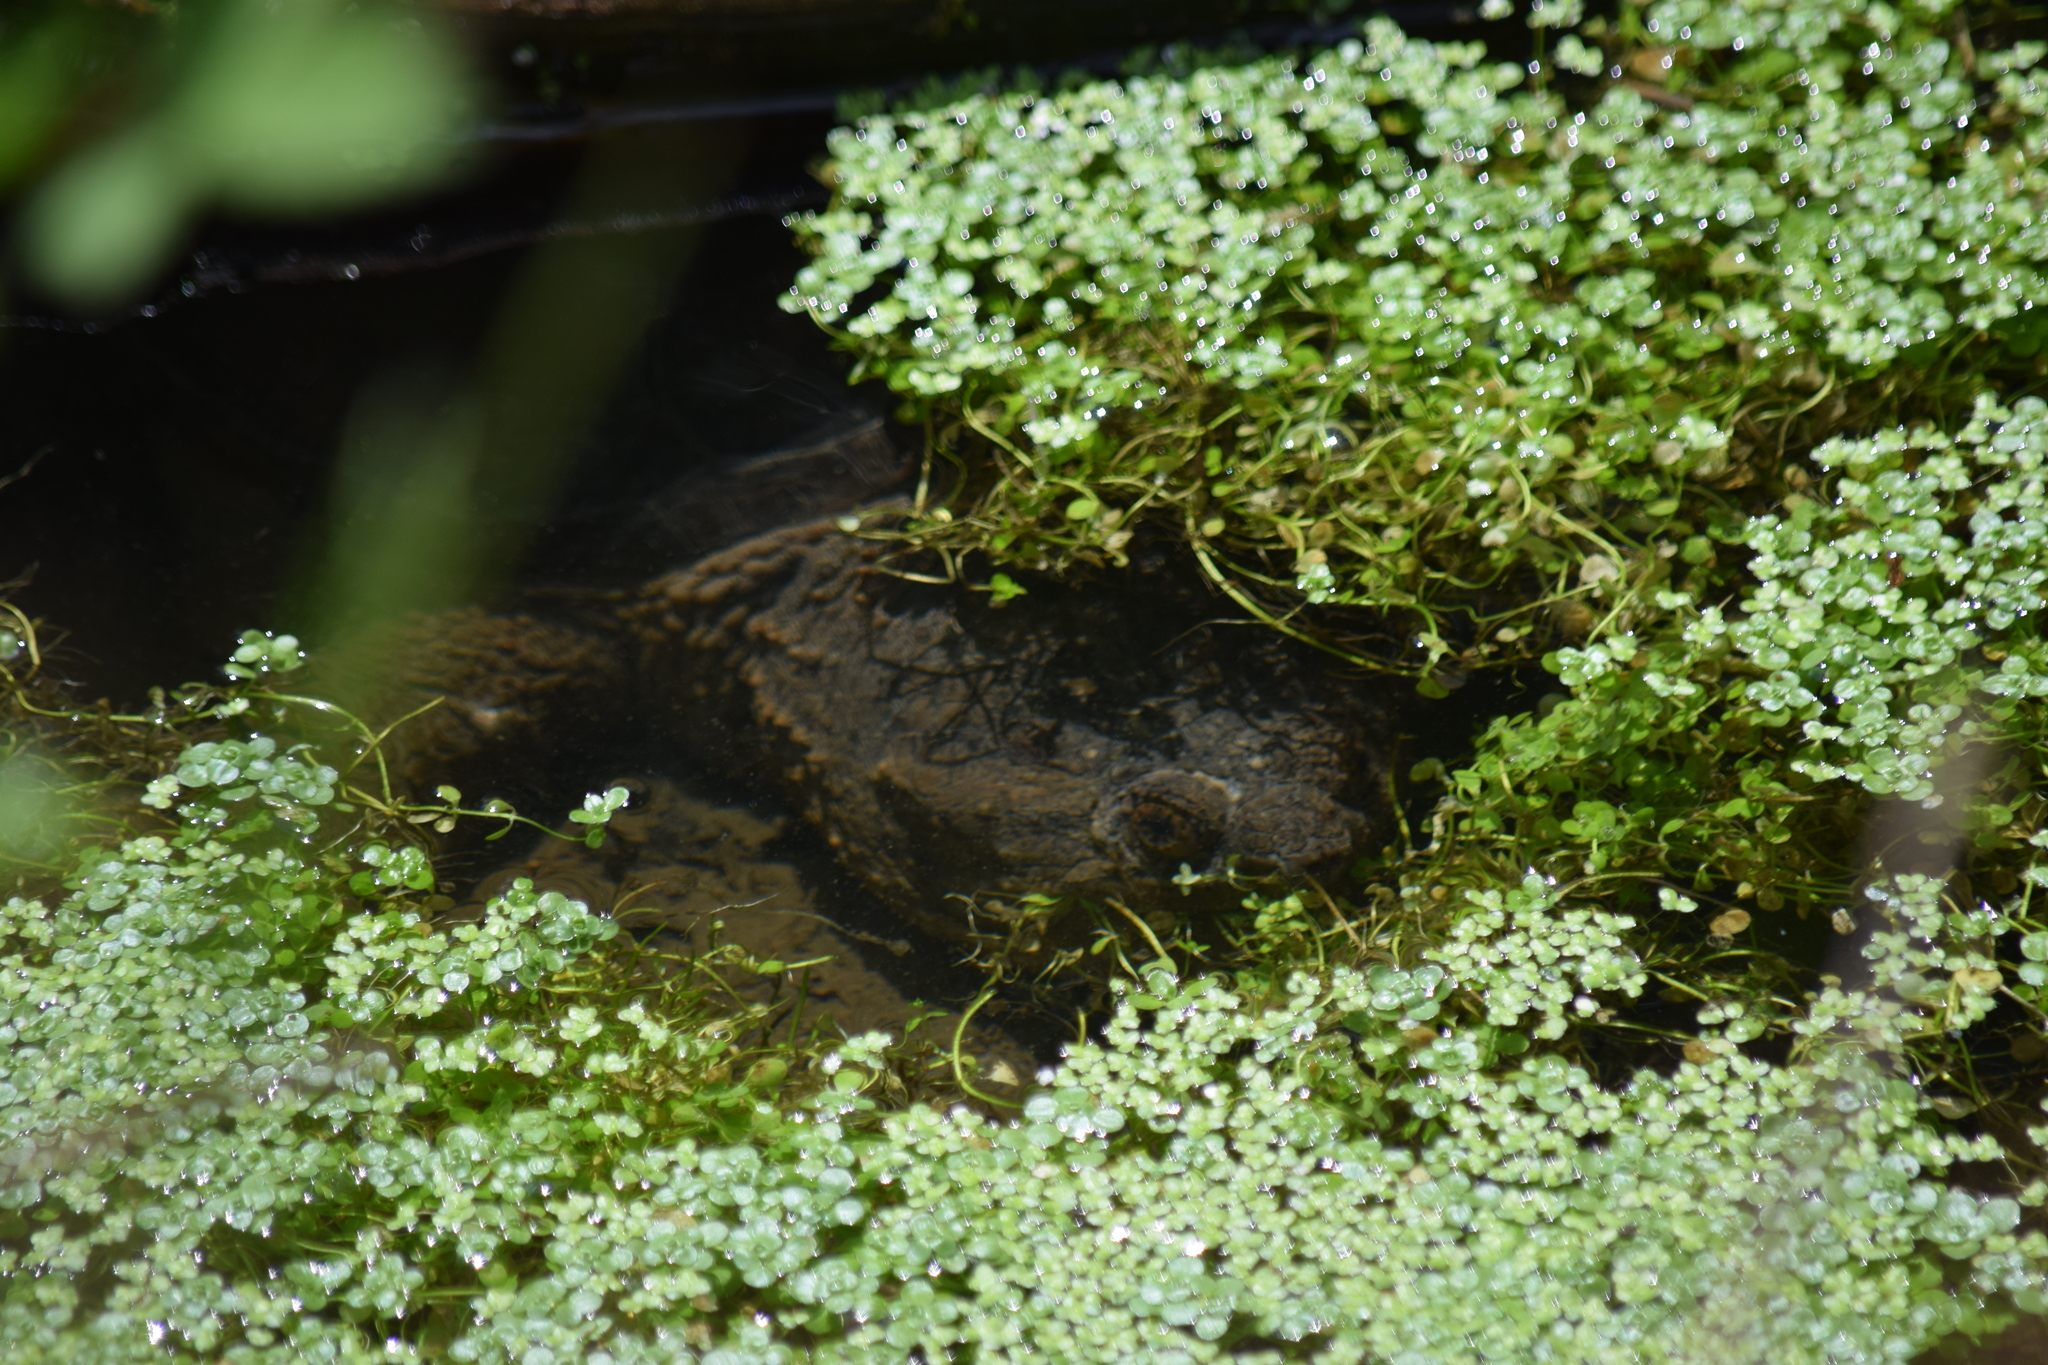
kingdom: Animalia
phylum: Chordata
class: Testudines
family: Chelydridae
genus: Chelydra
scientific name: Chelydra serpentina
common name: Common snapping turtle
